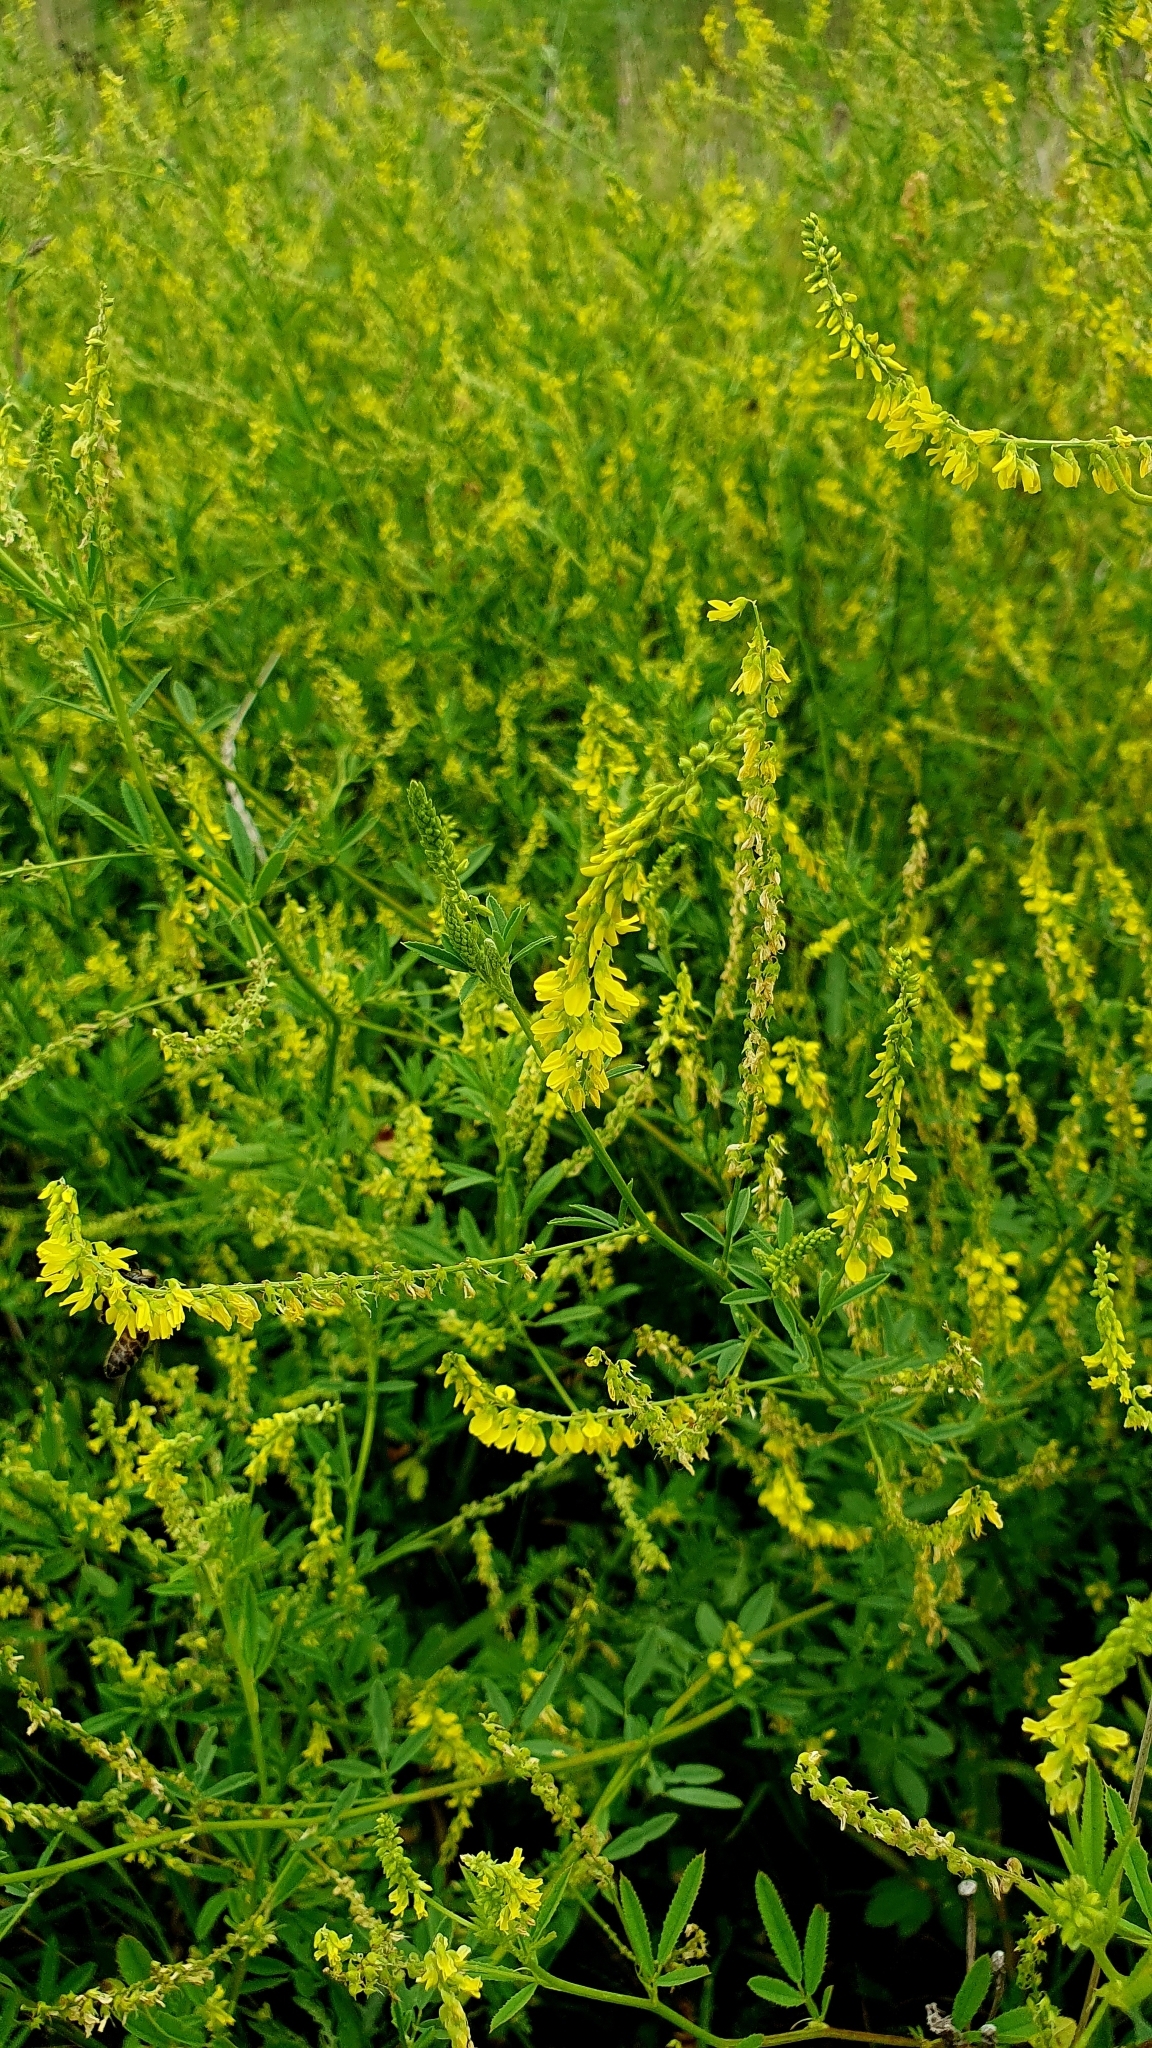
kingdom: Plantae
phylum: Tracheophyta
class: Magnoliopsida
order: Fabales
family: Fabaceae
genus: Melilotus
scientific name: Melilotus officinalis
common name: Sweetclover
